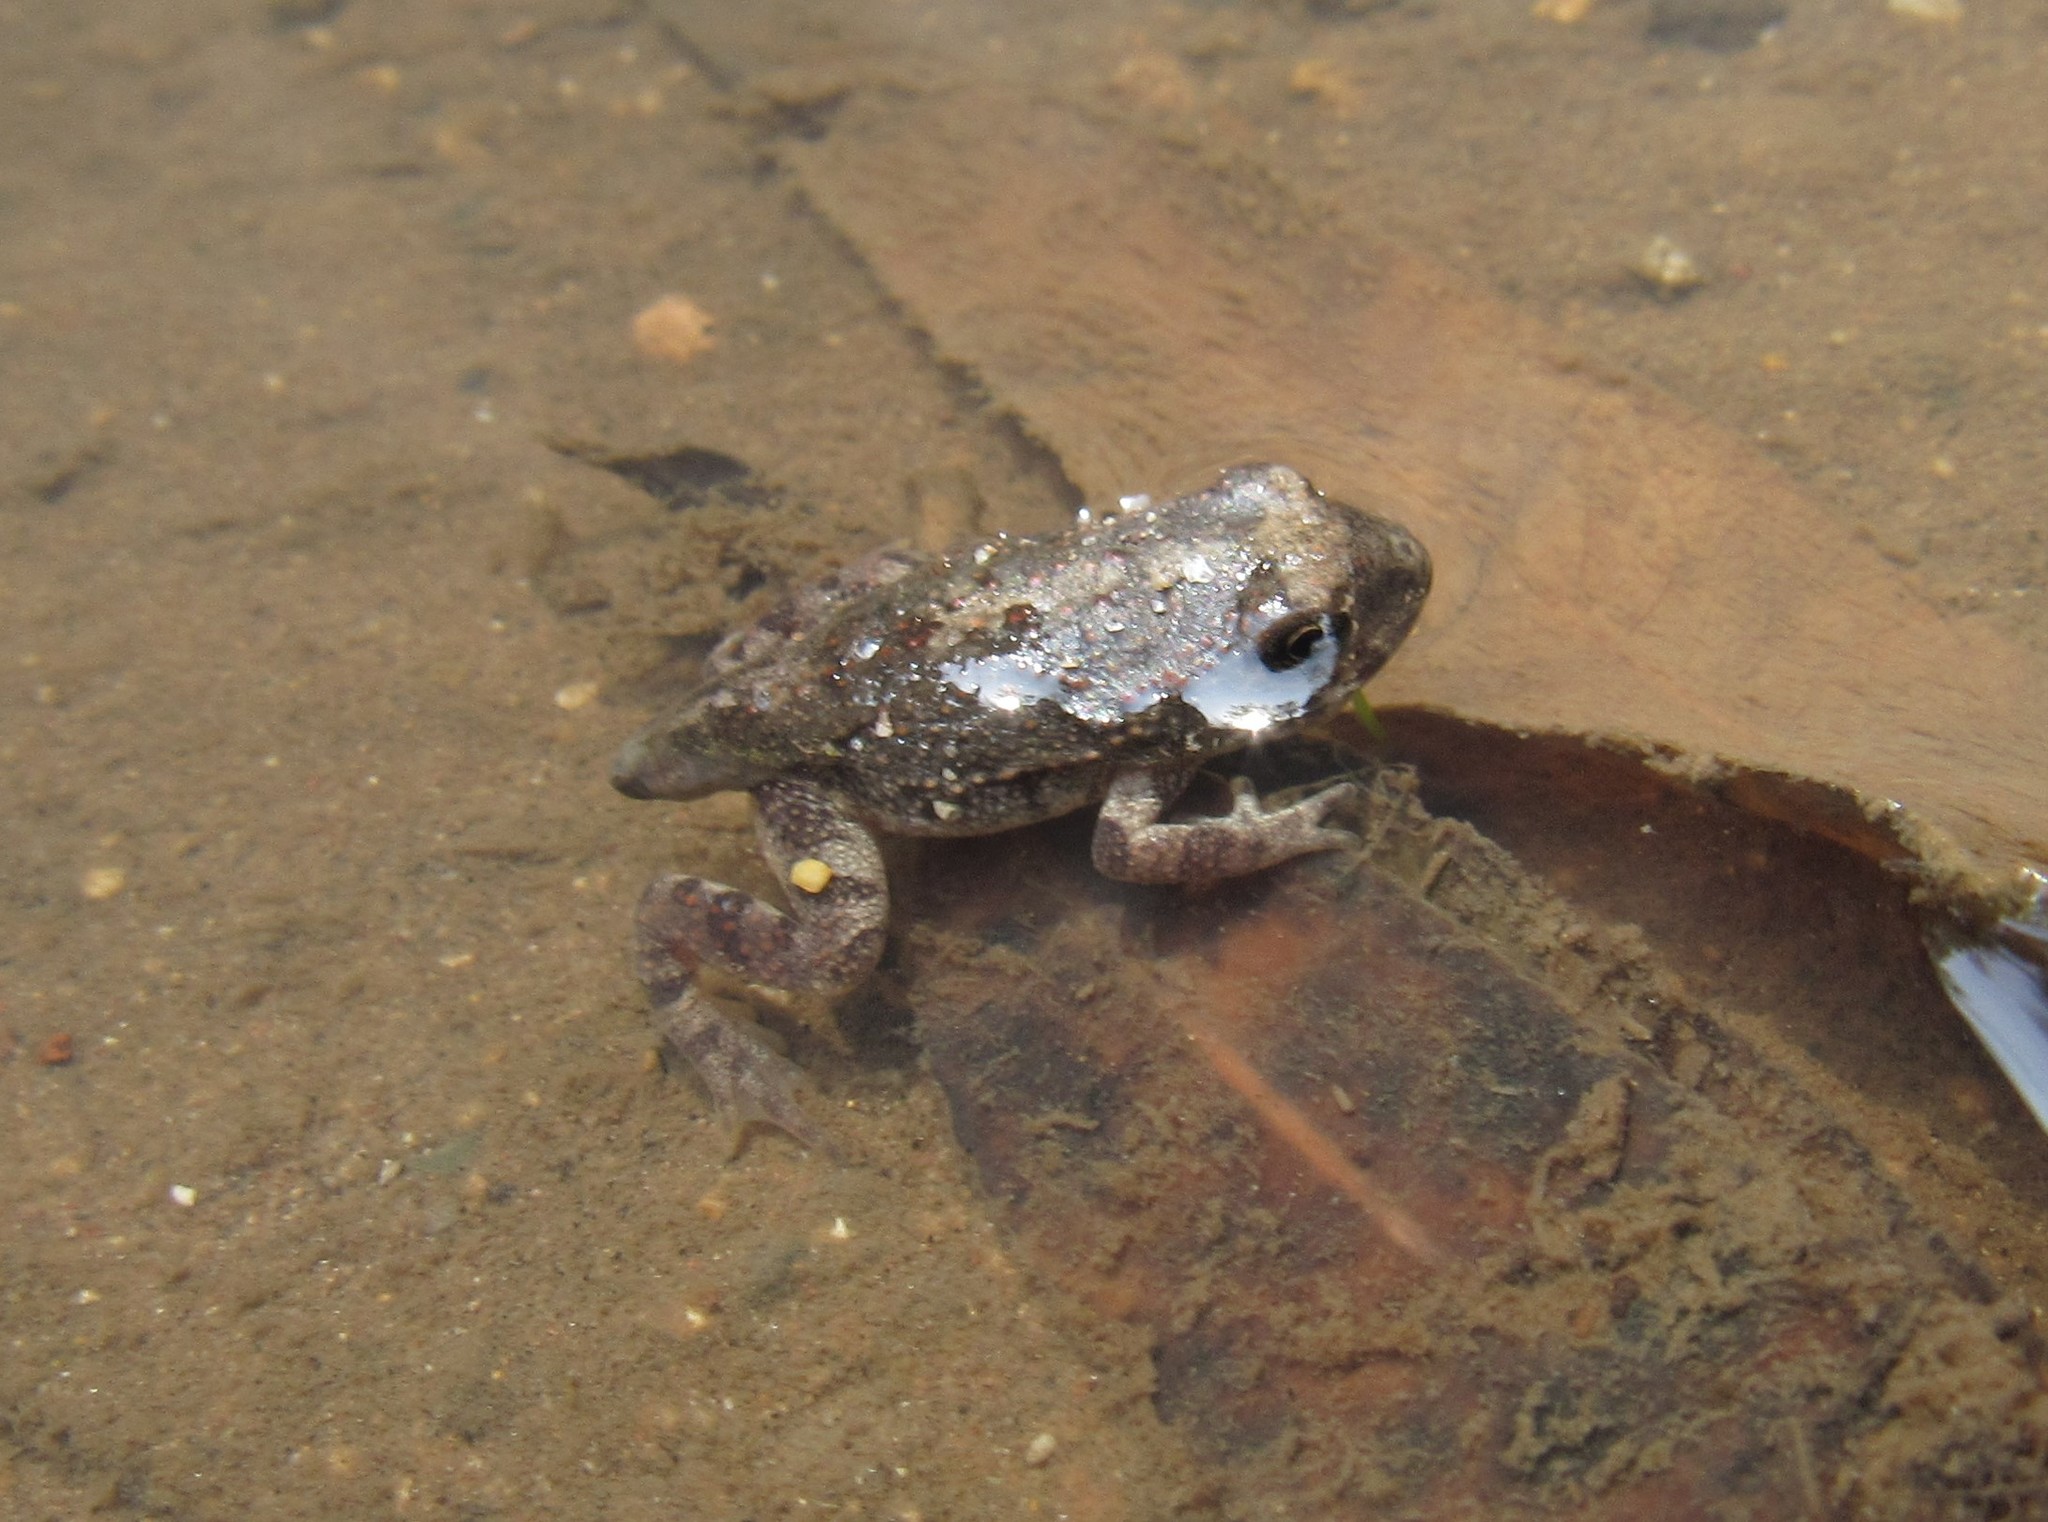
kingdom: Animalia
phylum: Chordata
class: Amphibia
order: Anura
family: Hylidae
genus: Dryophytes
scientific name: Dryophytes arenicolor
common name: Canyon treefrog
